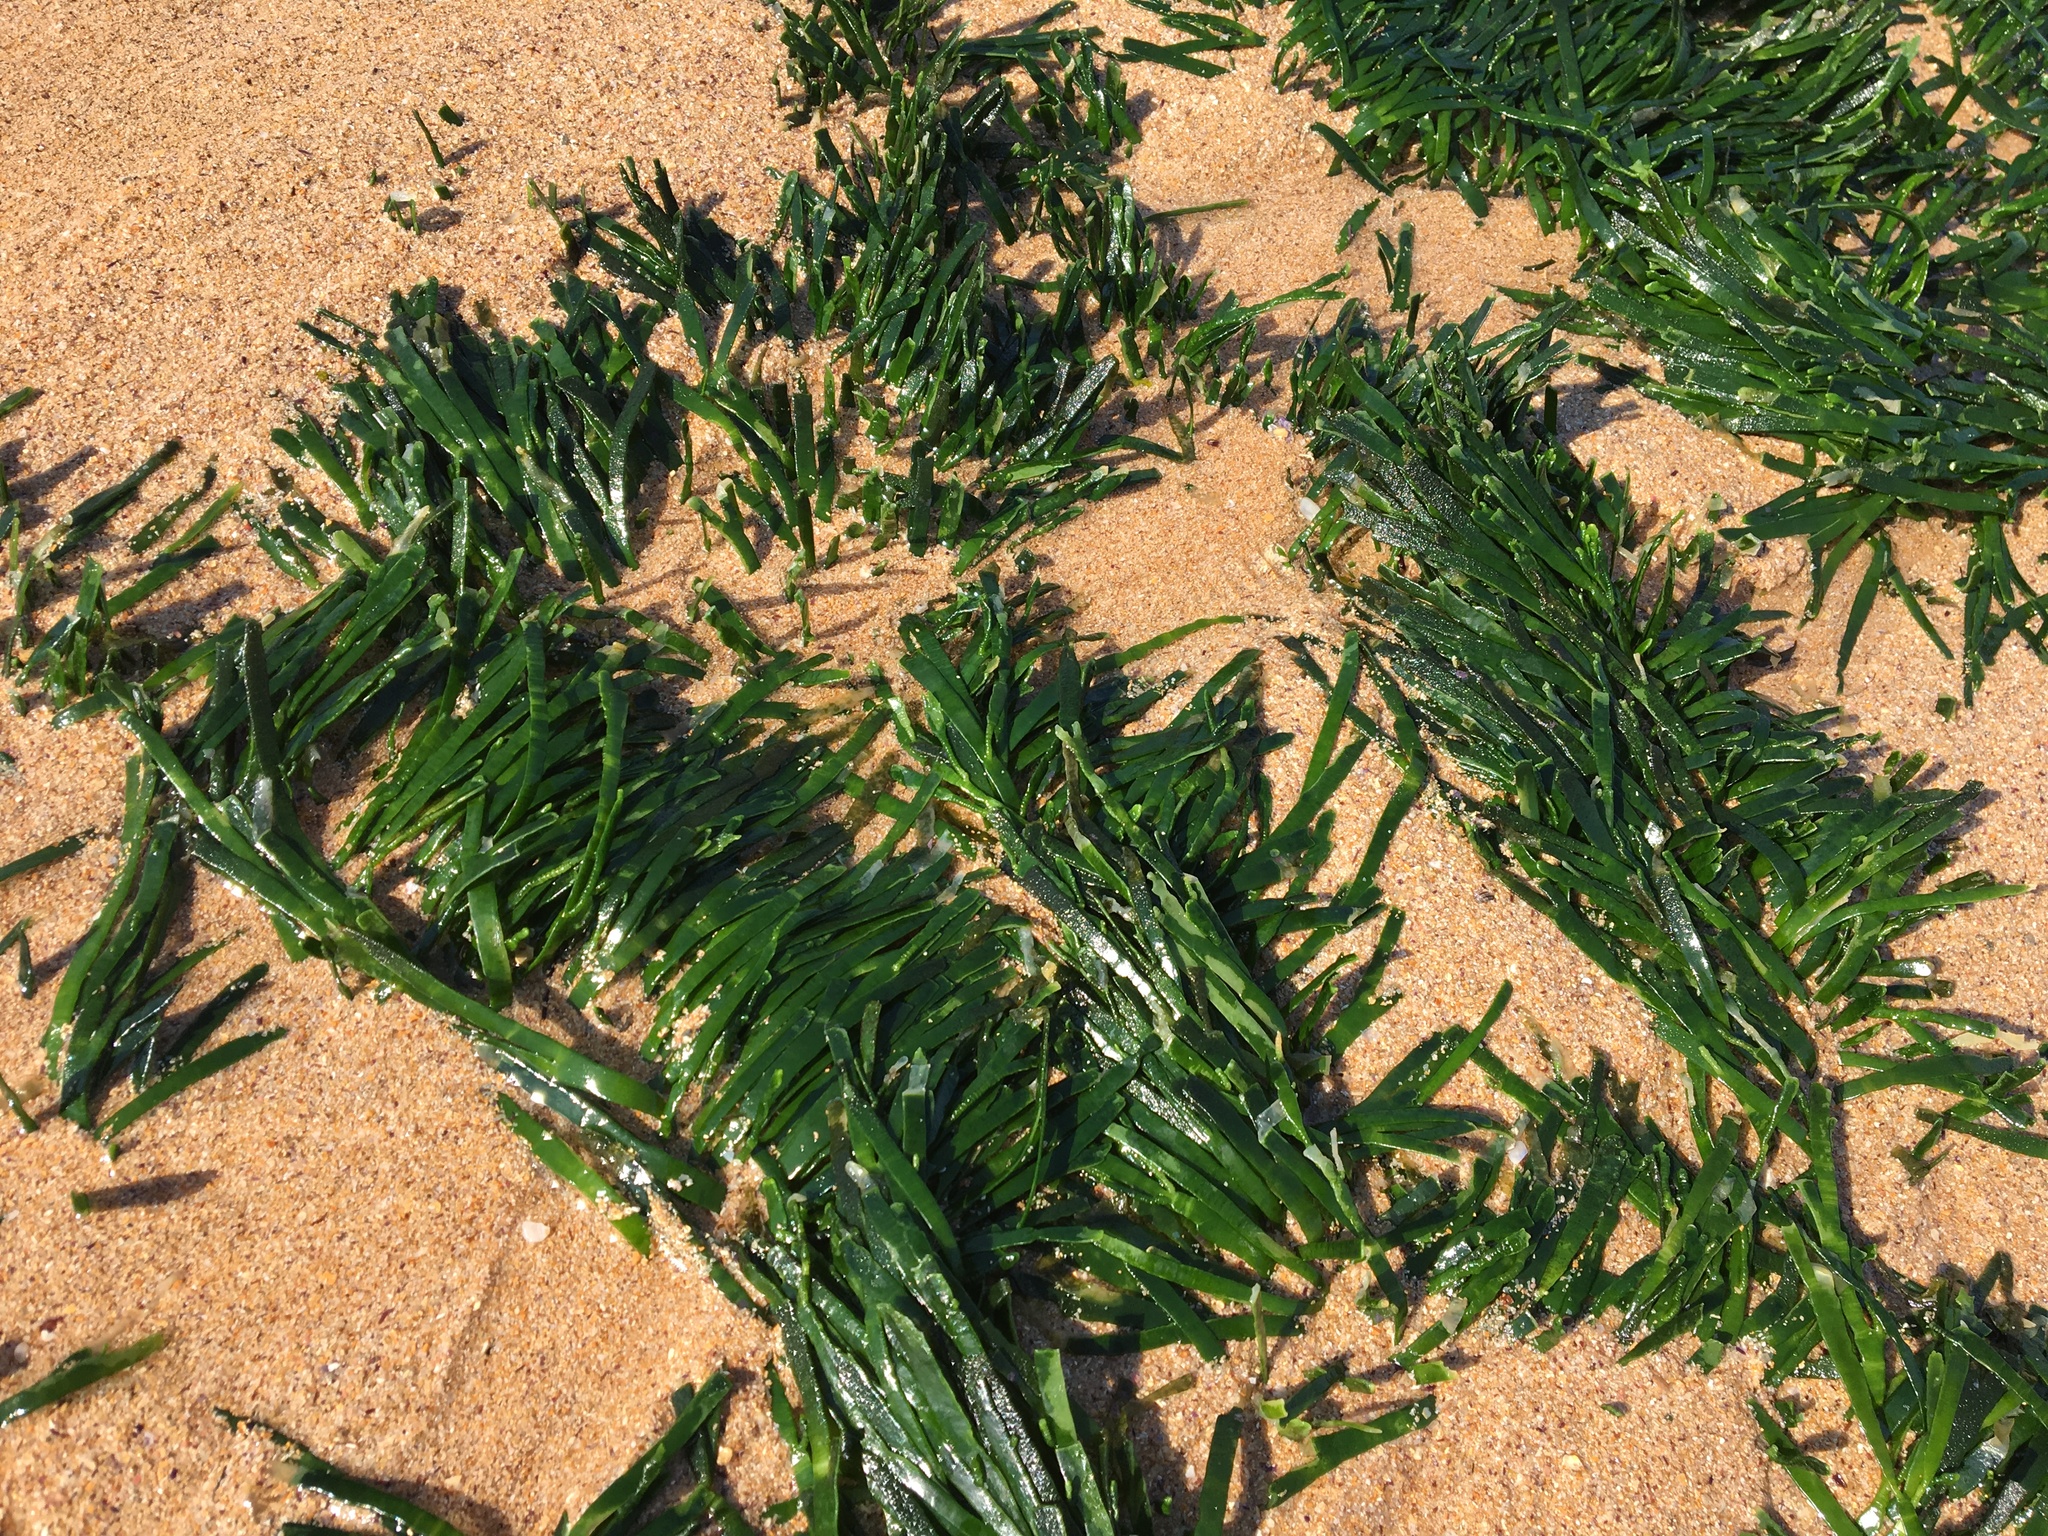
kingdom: Plantae
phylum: Chlorophyta
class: Ulvophyceae
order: Bryopsidales
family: Caulerpaceae
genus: Caulerpa
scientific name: Caulerpa filiformis
